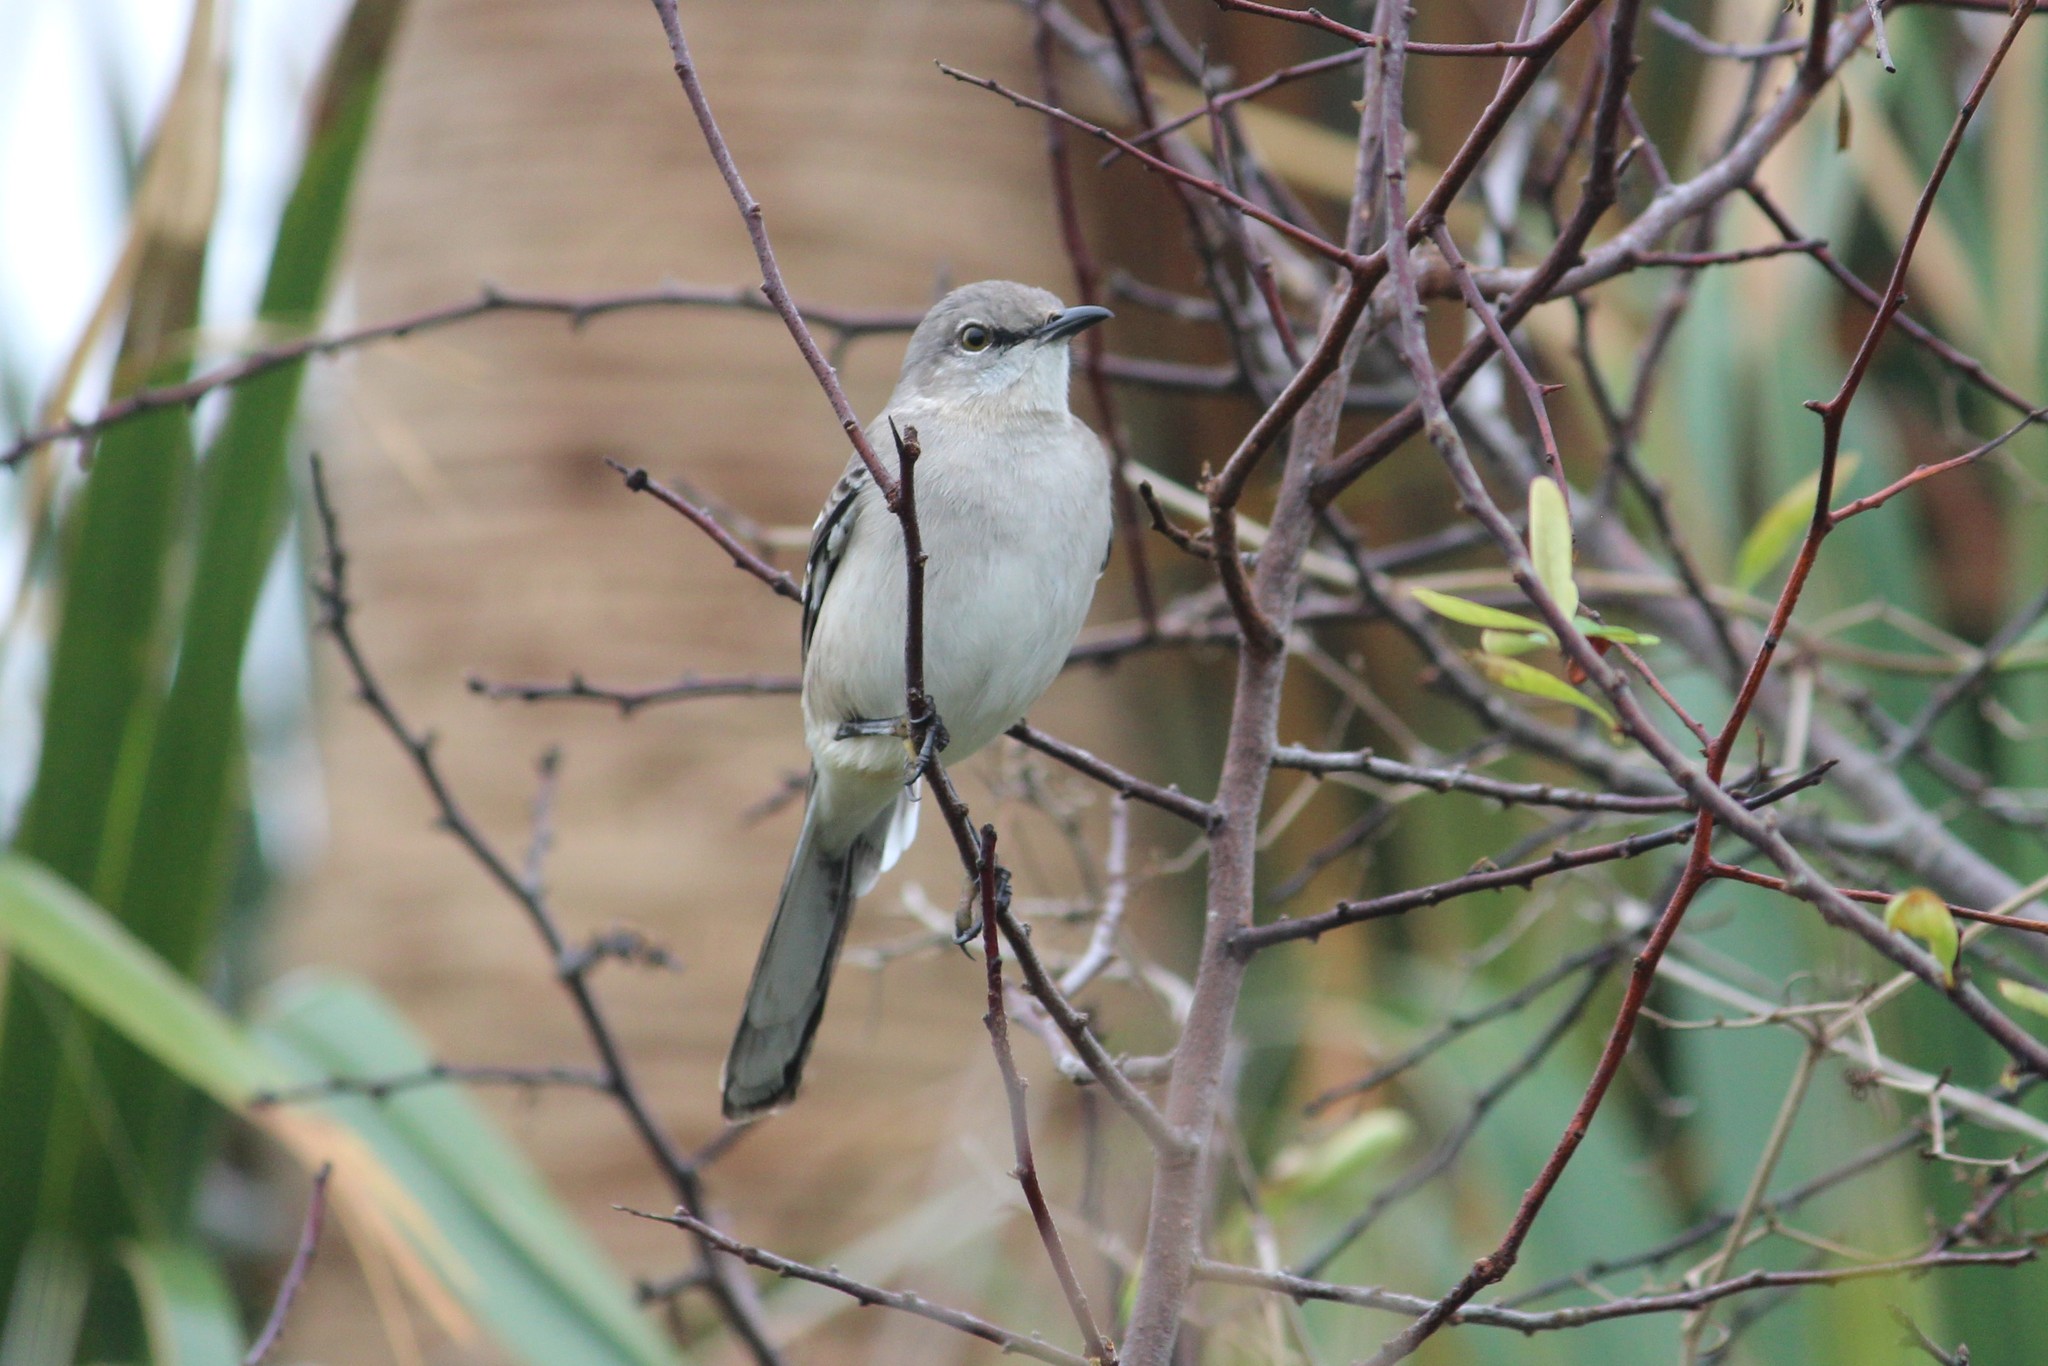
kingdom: Animalia
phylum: Chordata
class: Aves
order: Passeriformes
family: Mimidae
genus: Mimus
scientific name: Mimus polyglottos
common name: Northern mockingbird
